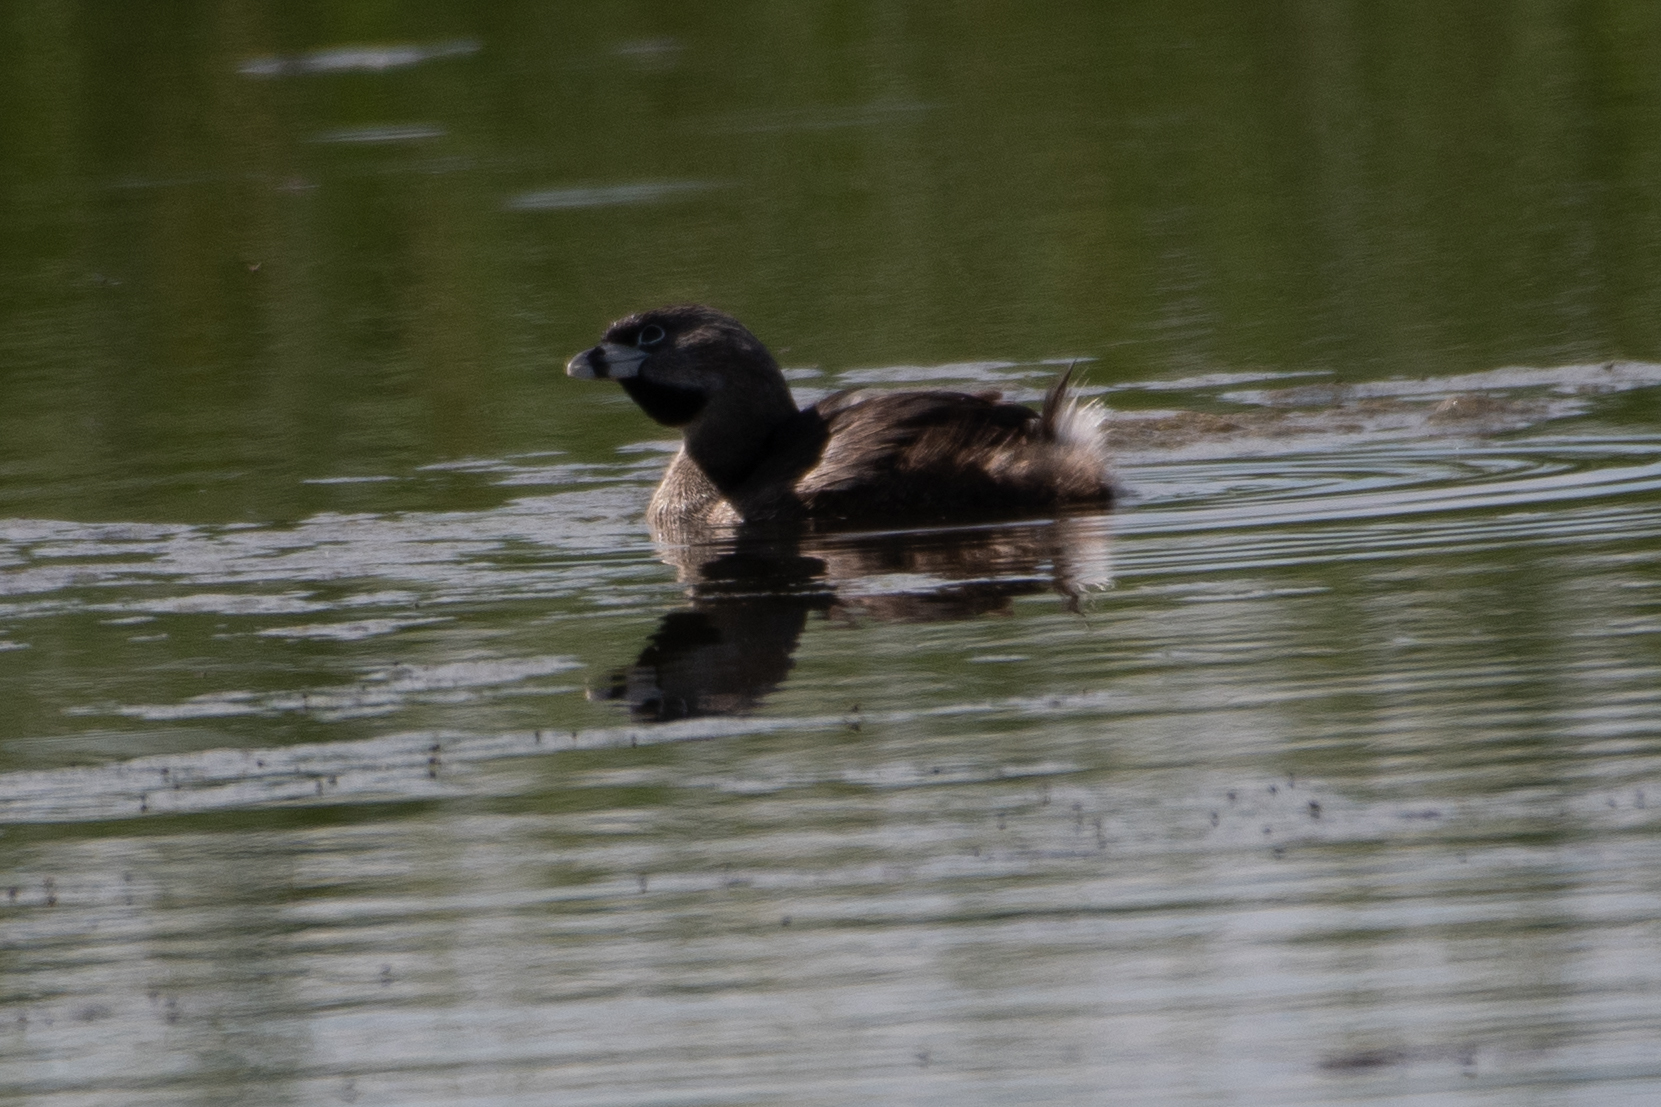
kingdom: Animalia
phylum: Chordata
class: Aves
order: Podicipediformes
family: Podicipedidae
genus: Podilymbus
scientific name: Podilymbus podiceps
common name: Pied-billed grebe
